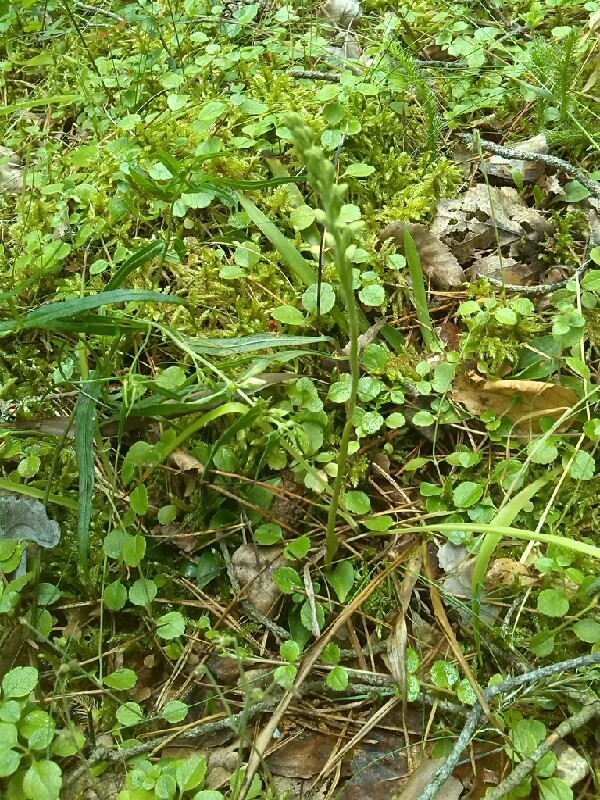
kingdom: Plantae
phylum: Tracheophyta
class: Liliopsida
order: Asparagales
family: Orchidaceae
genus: Goodyera
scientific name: Goodyera repens
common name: Creeping lady's-tresses
